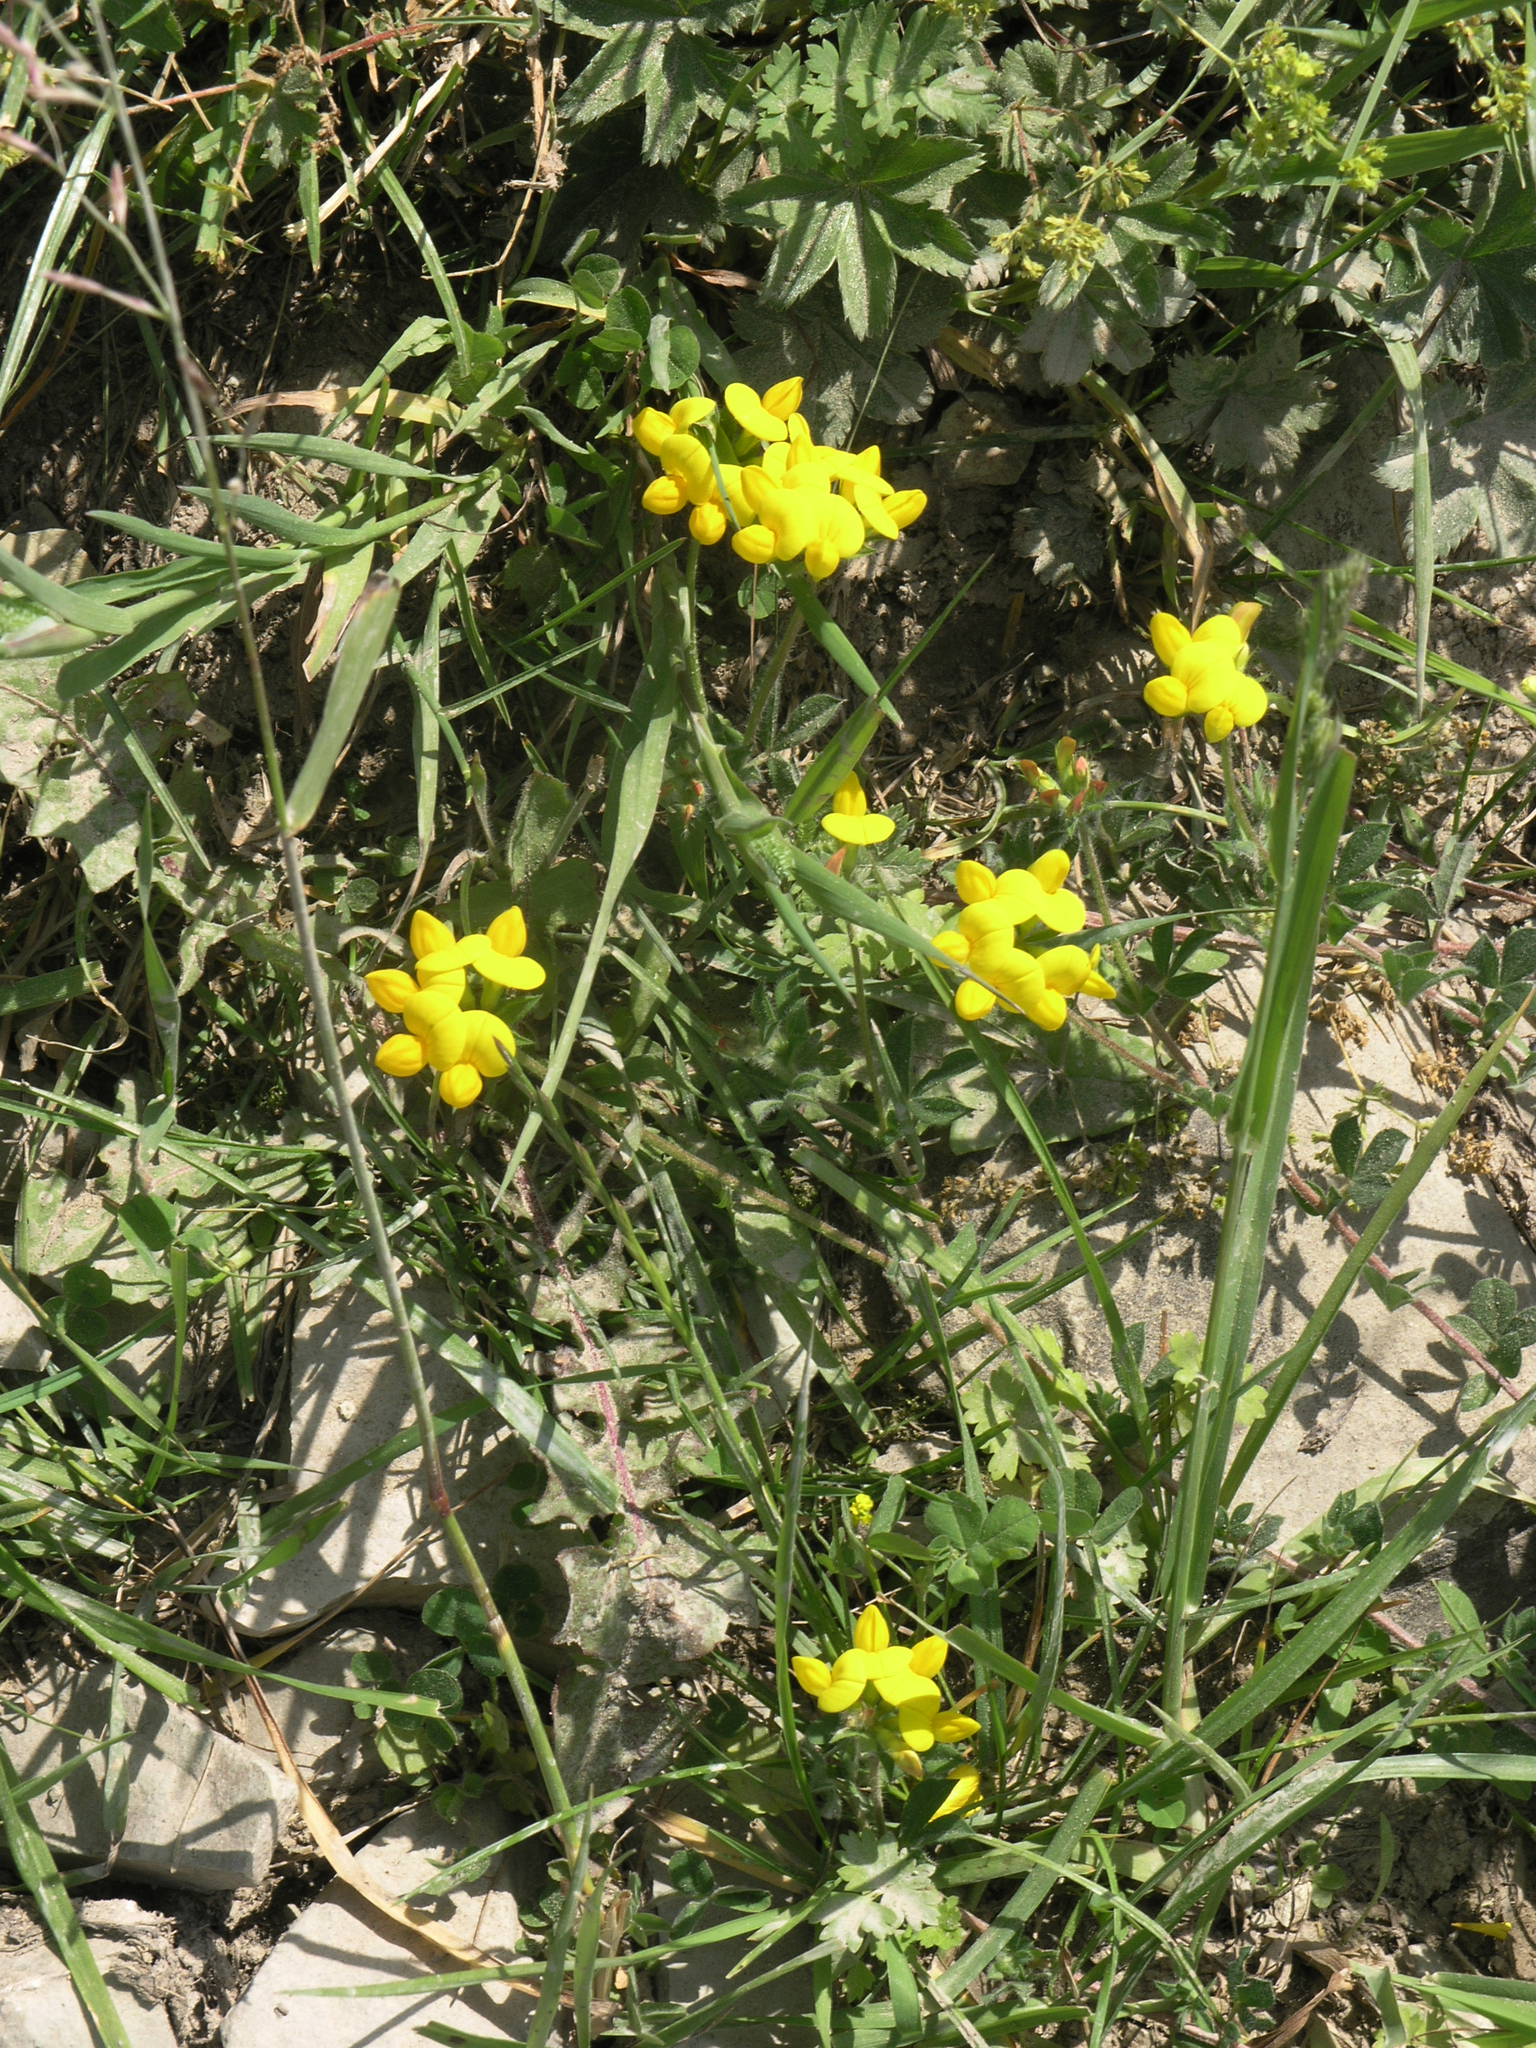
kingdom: Plantae
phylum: Tracheophyta
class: Magnoliopsida
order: Fabales
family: Fabaceae
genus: Lotus
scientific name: Lotus corniculatus
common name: Common bird's-foot-trefoil
